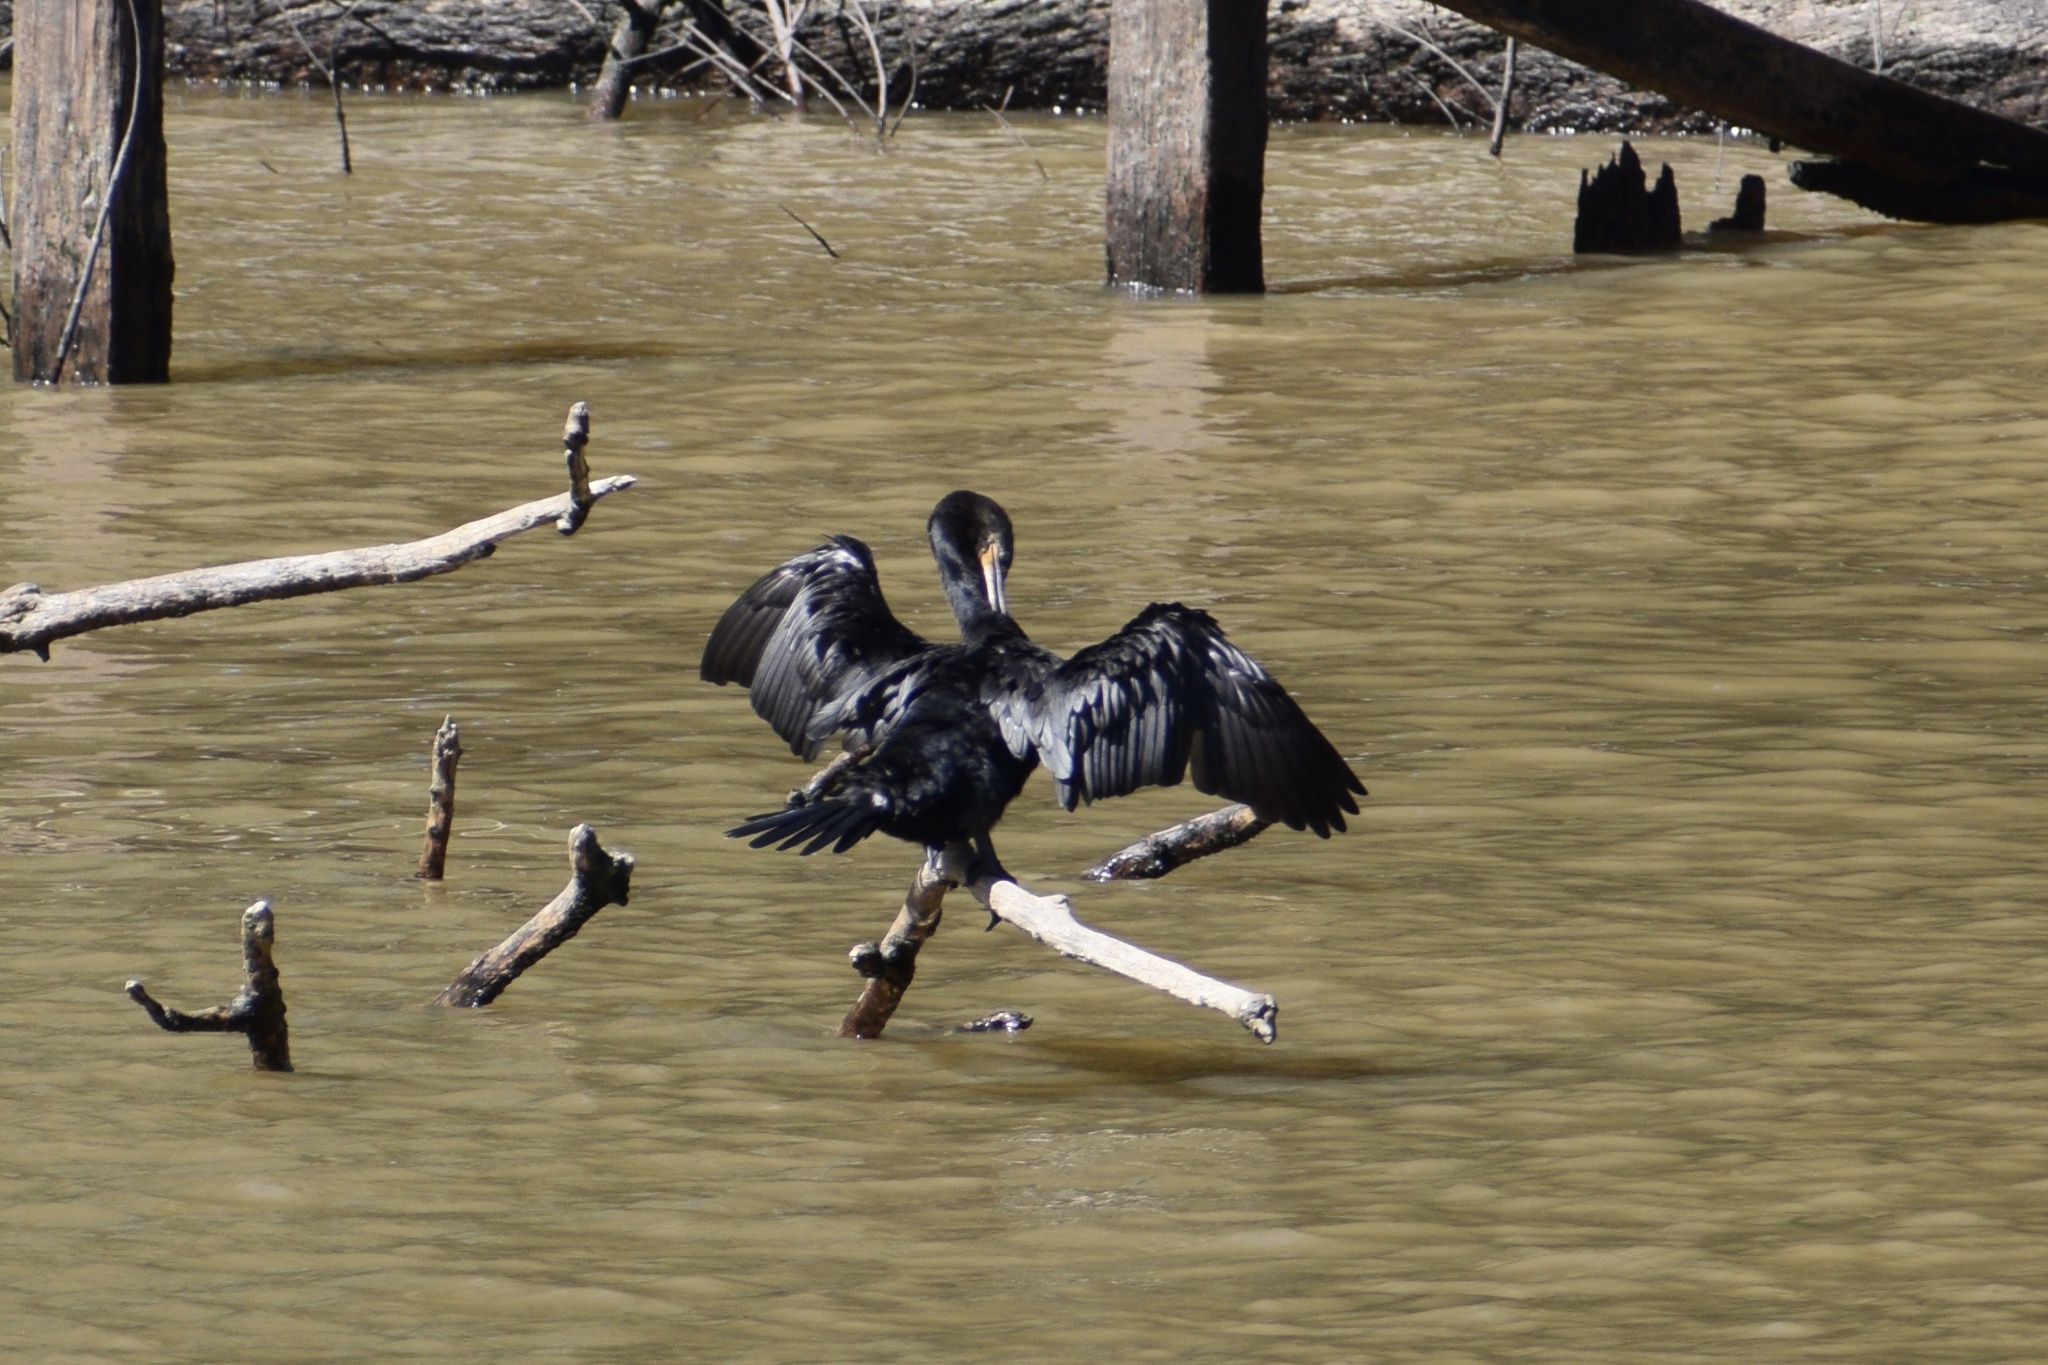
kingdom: Animalia
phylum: Chordata
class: Aves
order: Suliformes
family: Phalacrocoracidae
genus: Phalacrocorax
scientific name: Phalacrocorax brasilianus
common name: Neotropic cormorant
